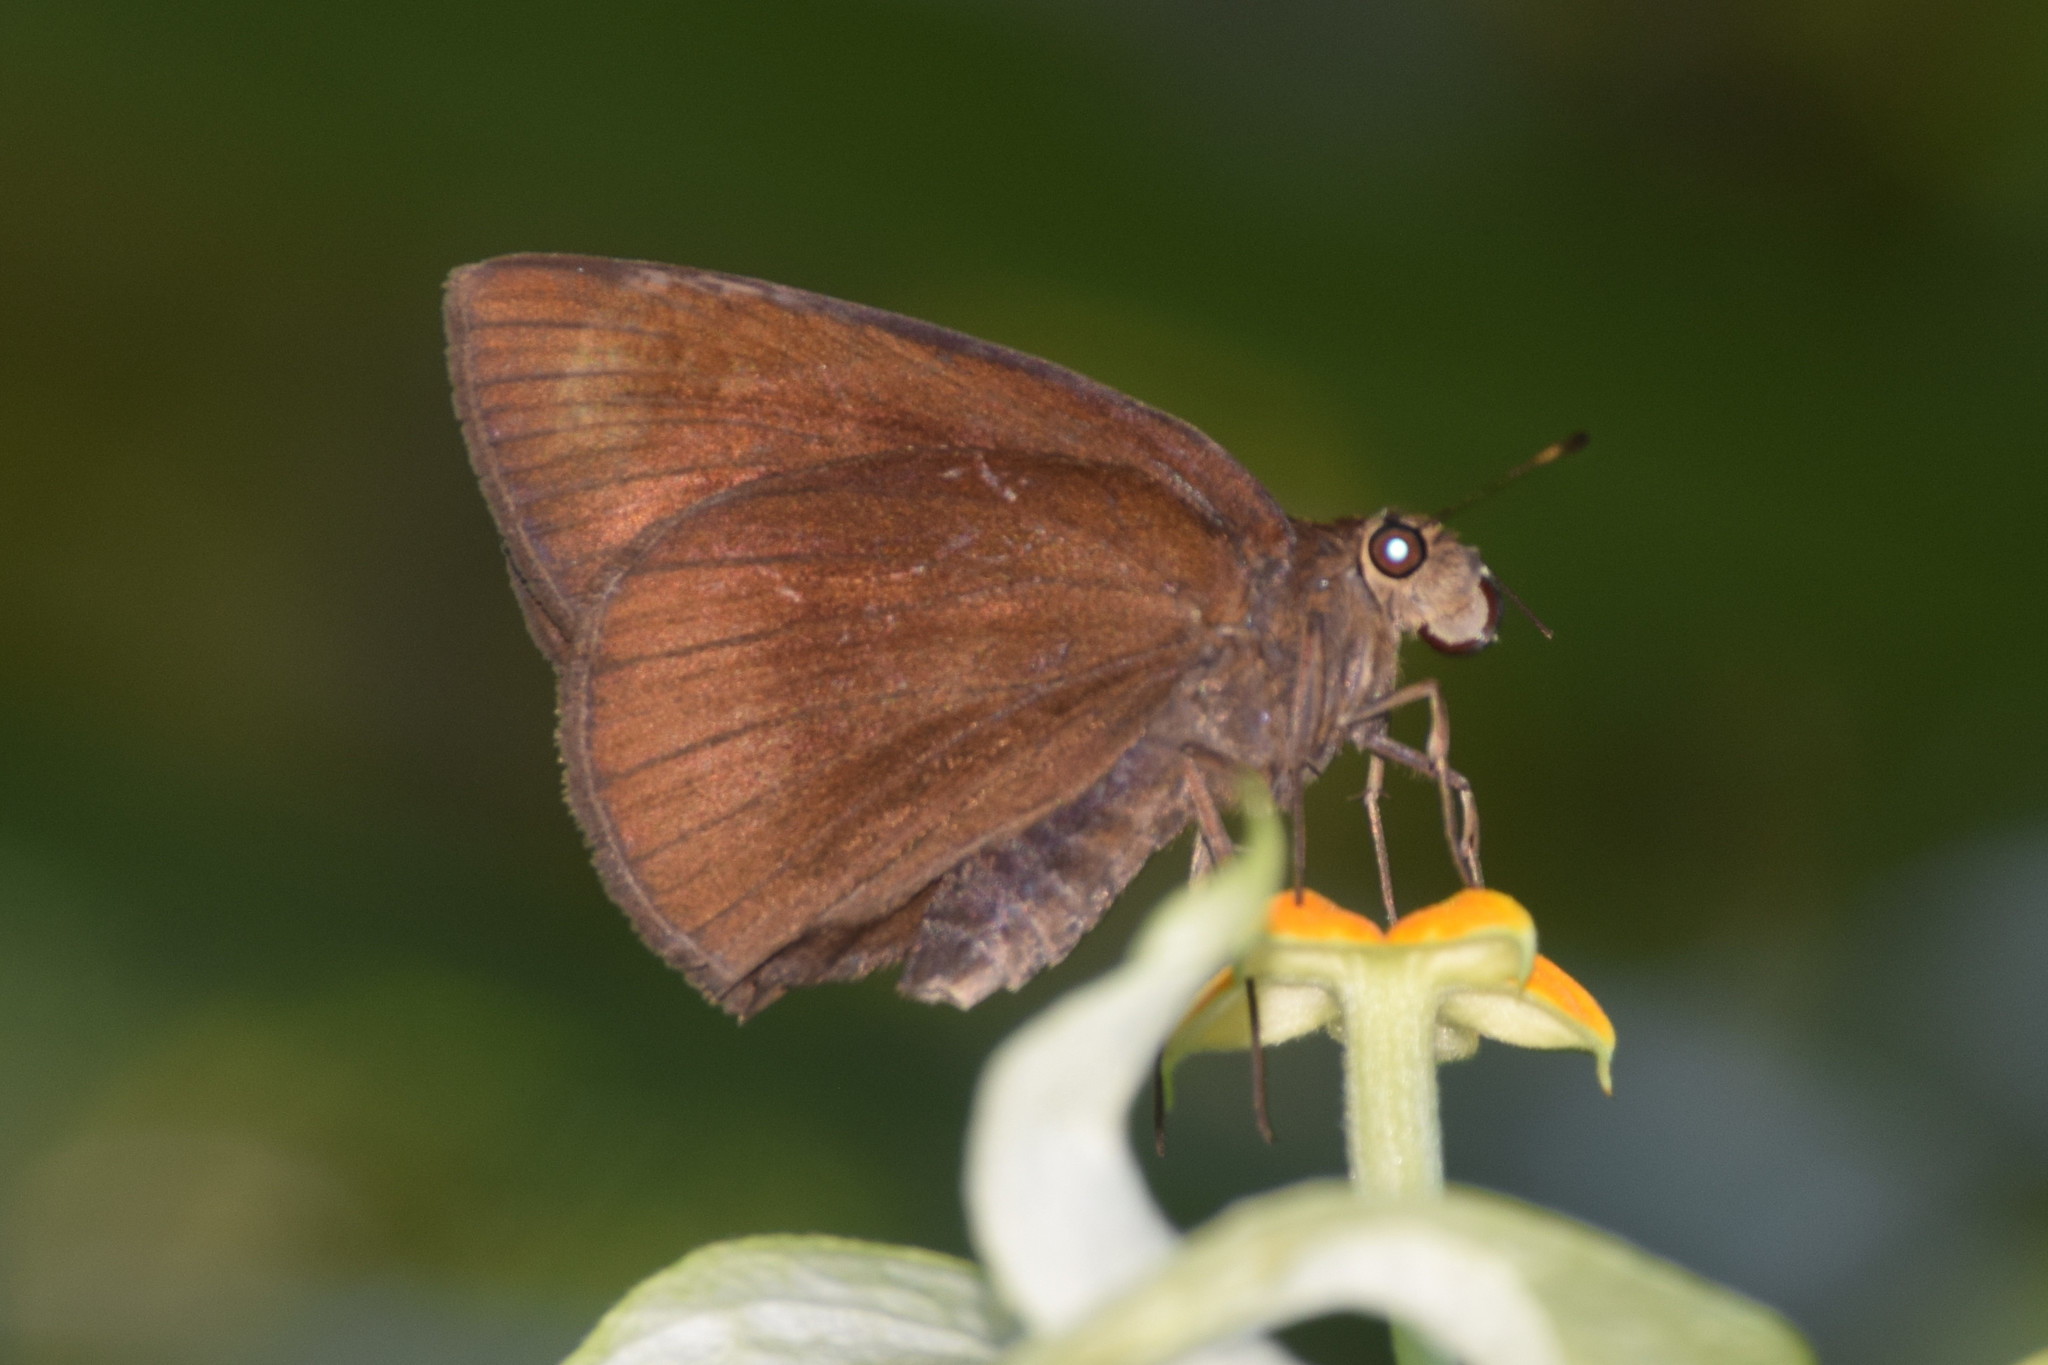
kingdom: Animalia
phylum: Arthropoda
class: Insecta
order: Lepidoptera
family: Hesperiidae
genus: Ancistroides
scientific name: Ancistroides nigrita
